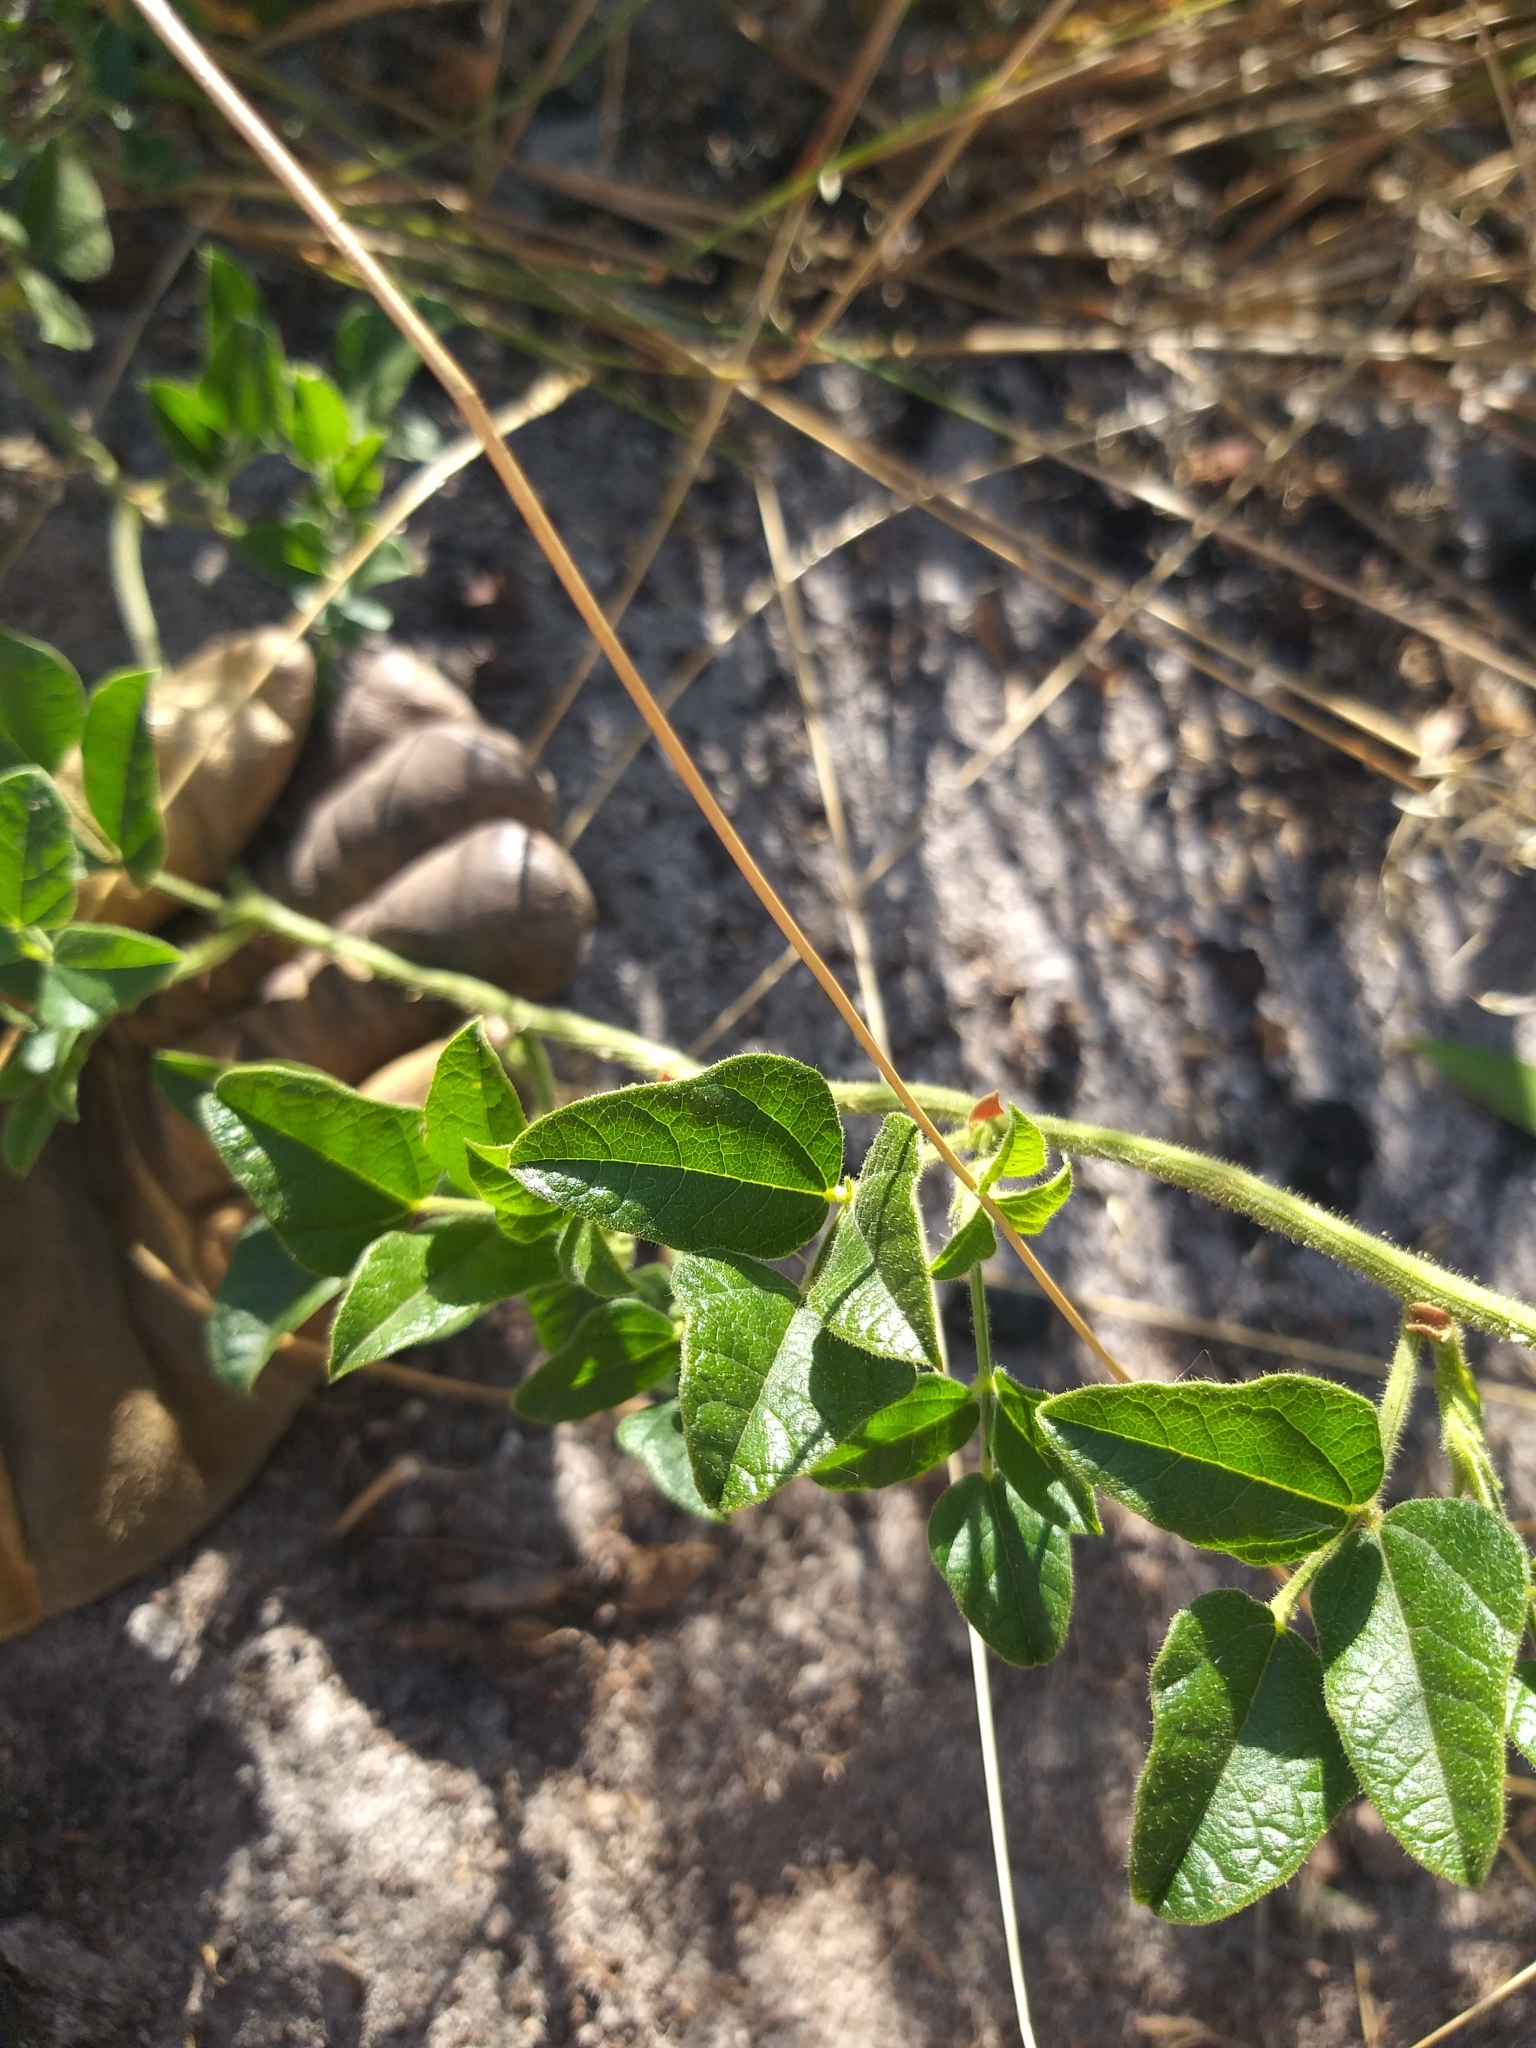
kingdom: Plantae
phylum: Tracheophyta
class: Magnoliopsida
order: Fabales
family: Fabaceae
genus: Bolusafra
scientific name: Bolusafra bituminosa
